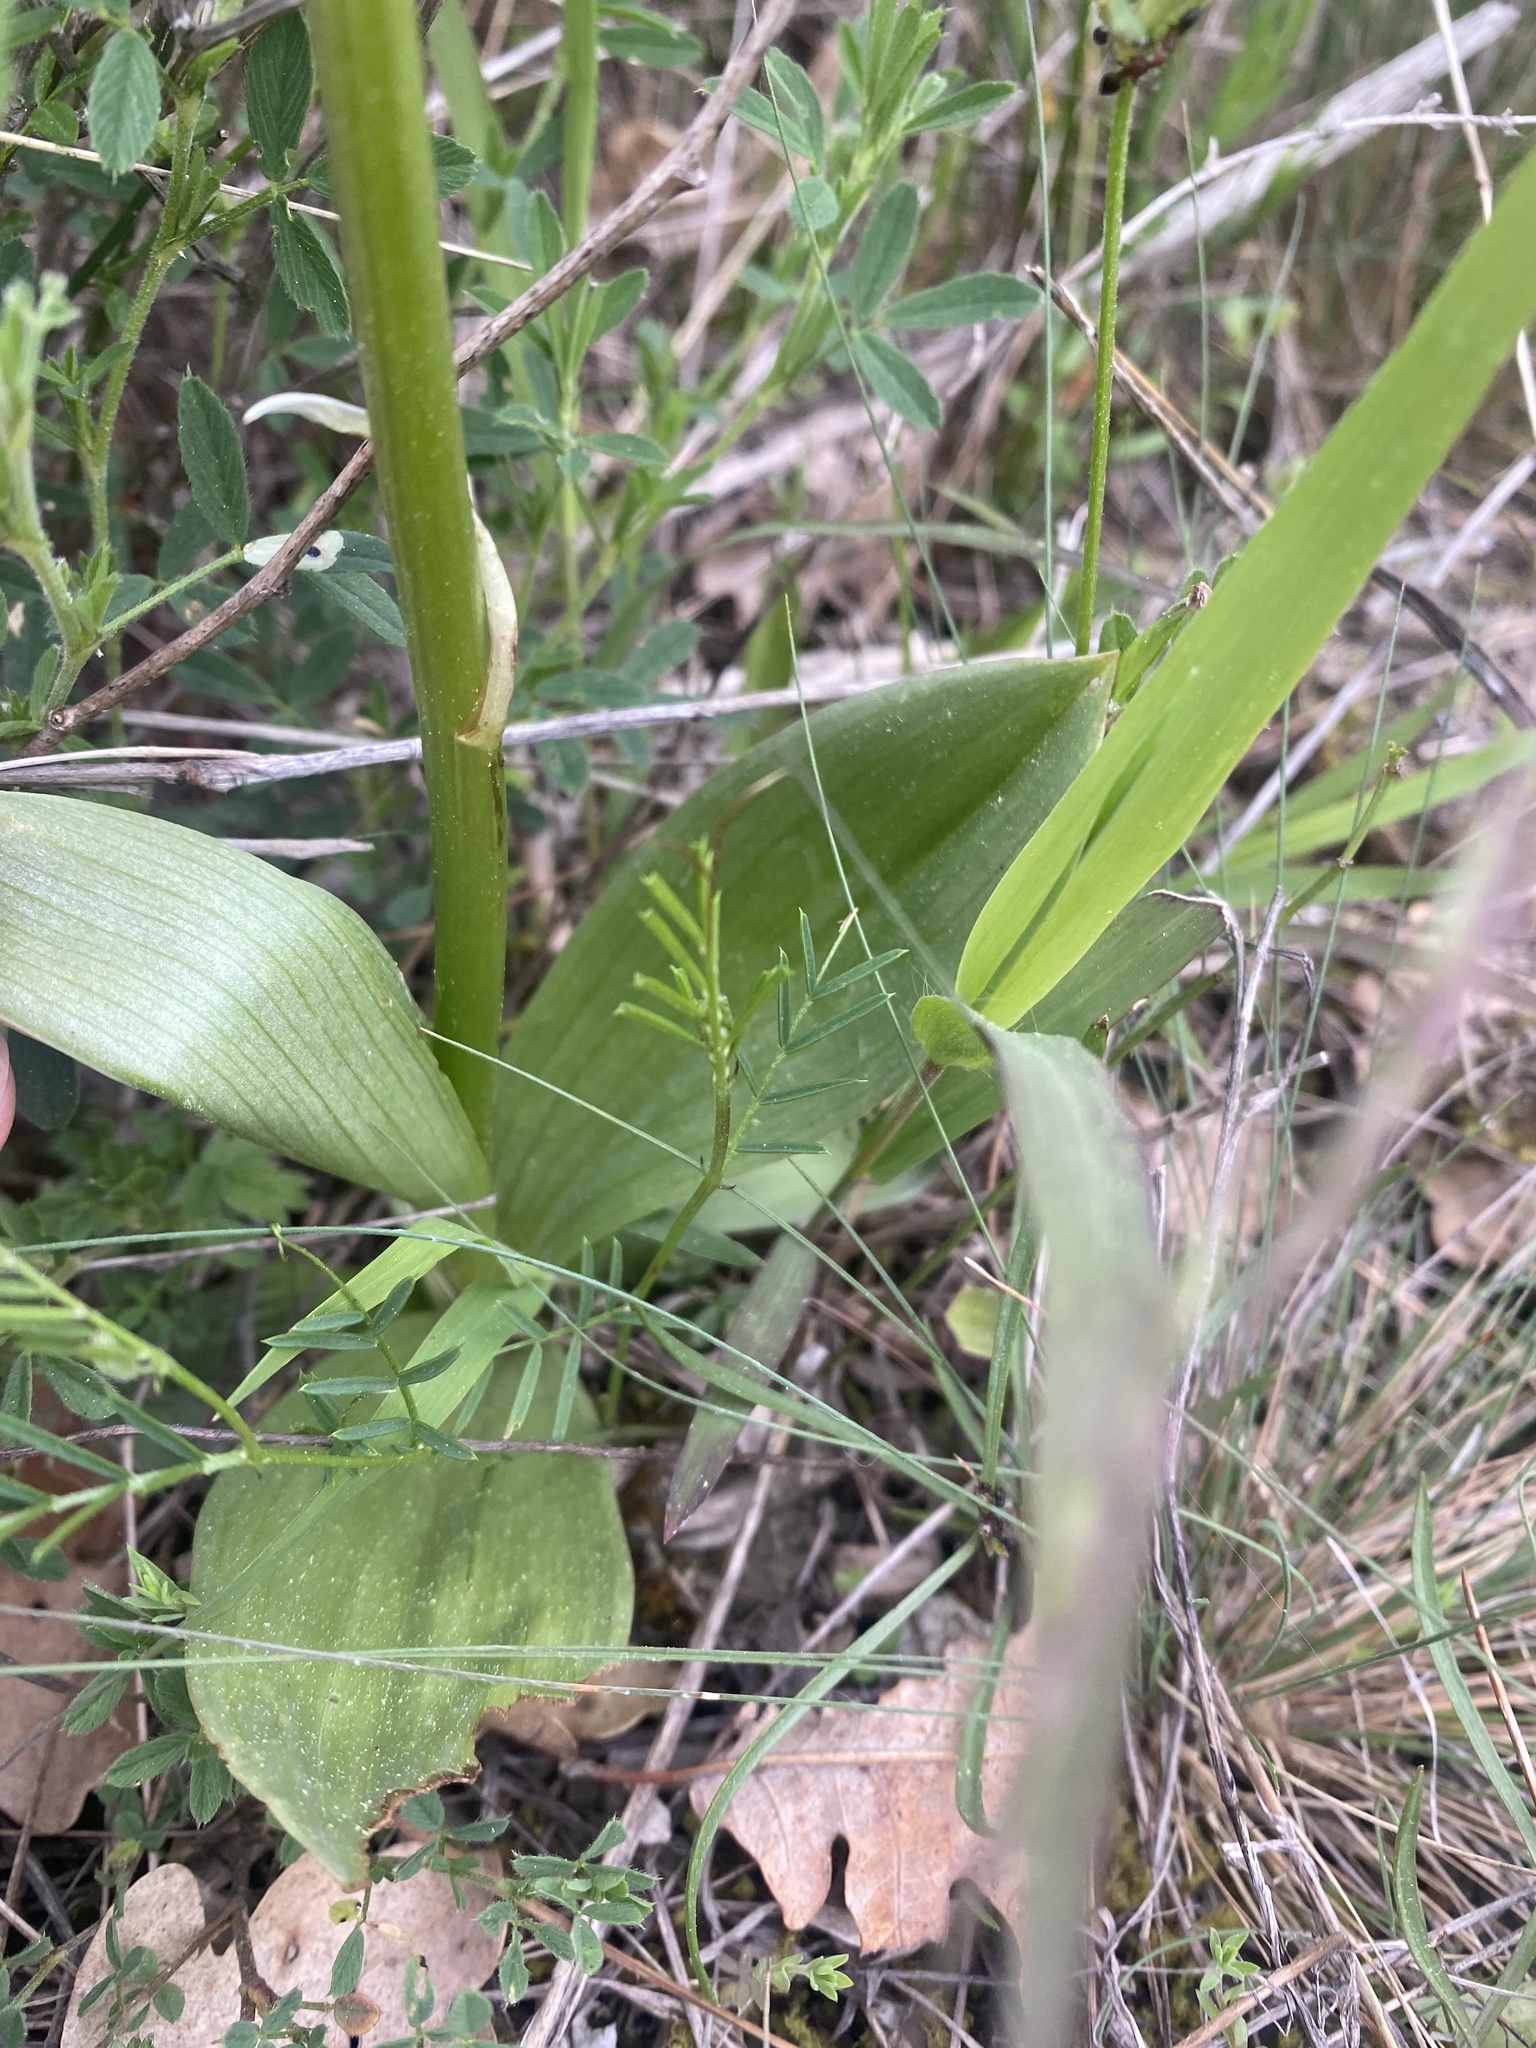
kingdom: Plantae
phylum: Tracheophyta
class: Liliopsida
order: Asparagales
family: Orchidaceae
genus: Orchis
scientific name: Orchis simia
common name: Monkey orchid
